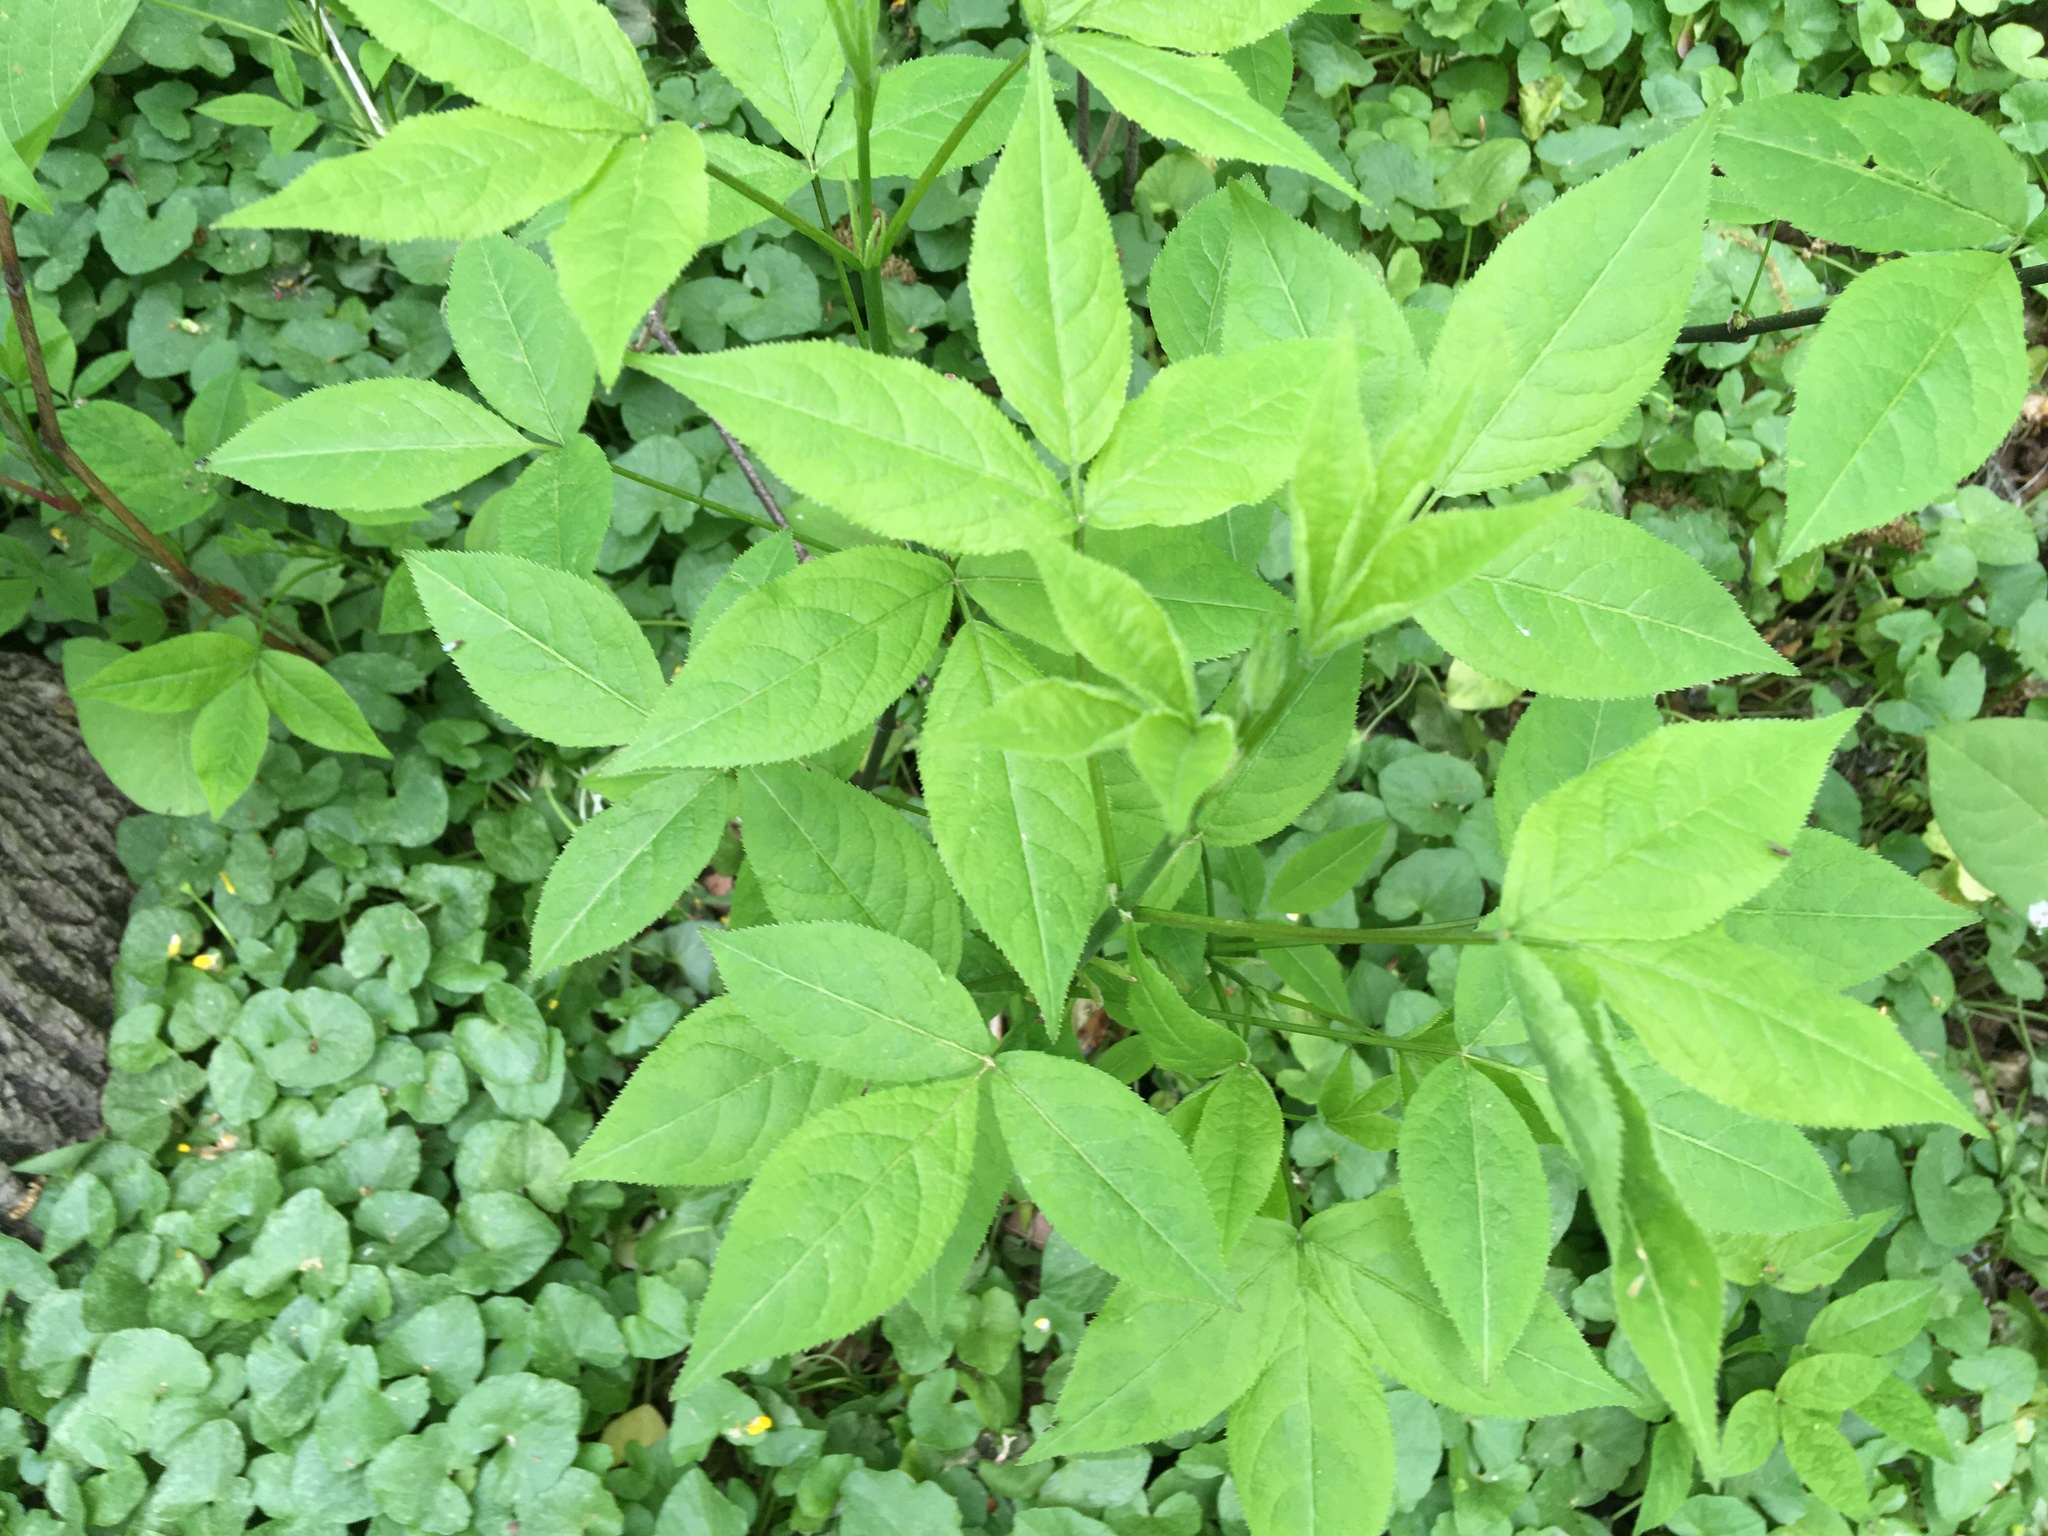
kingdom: Plantae
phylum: Tracheophyta
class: Magnoliopsida
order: Crossosomatales
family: Staphyleaceae
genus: Staphylea
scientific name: Staphylea trifolia
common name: American bladdernut
